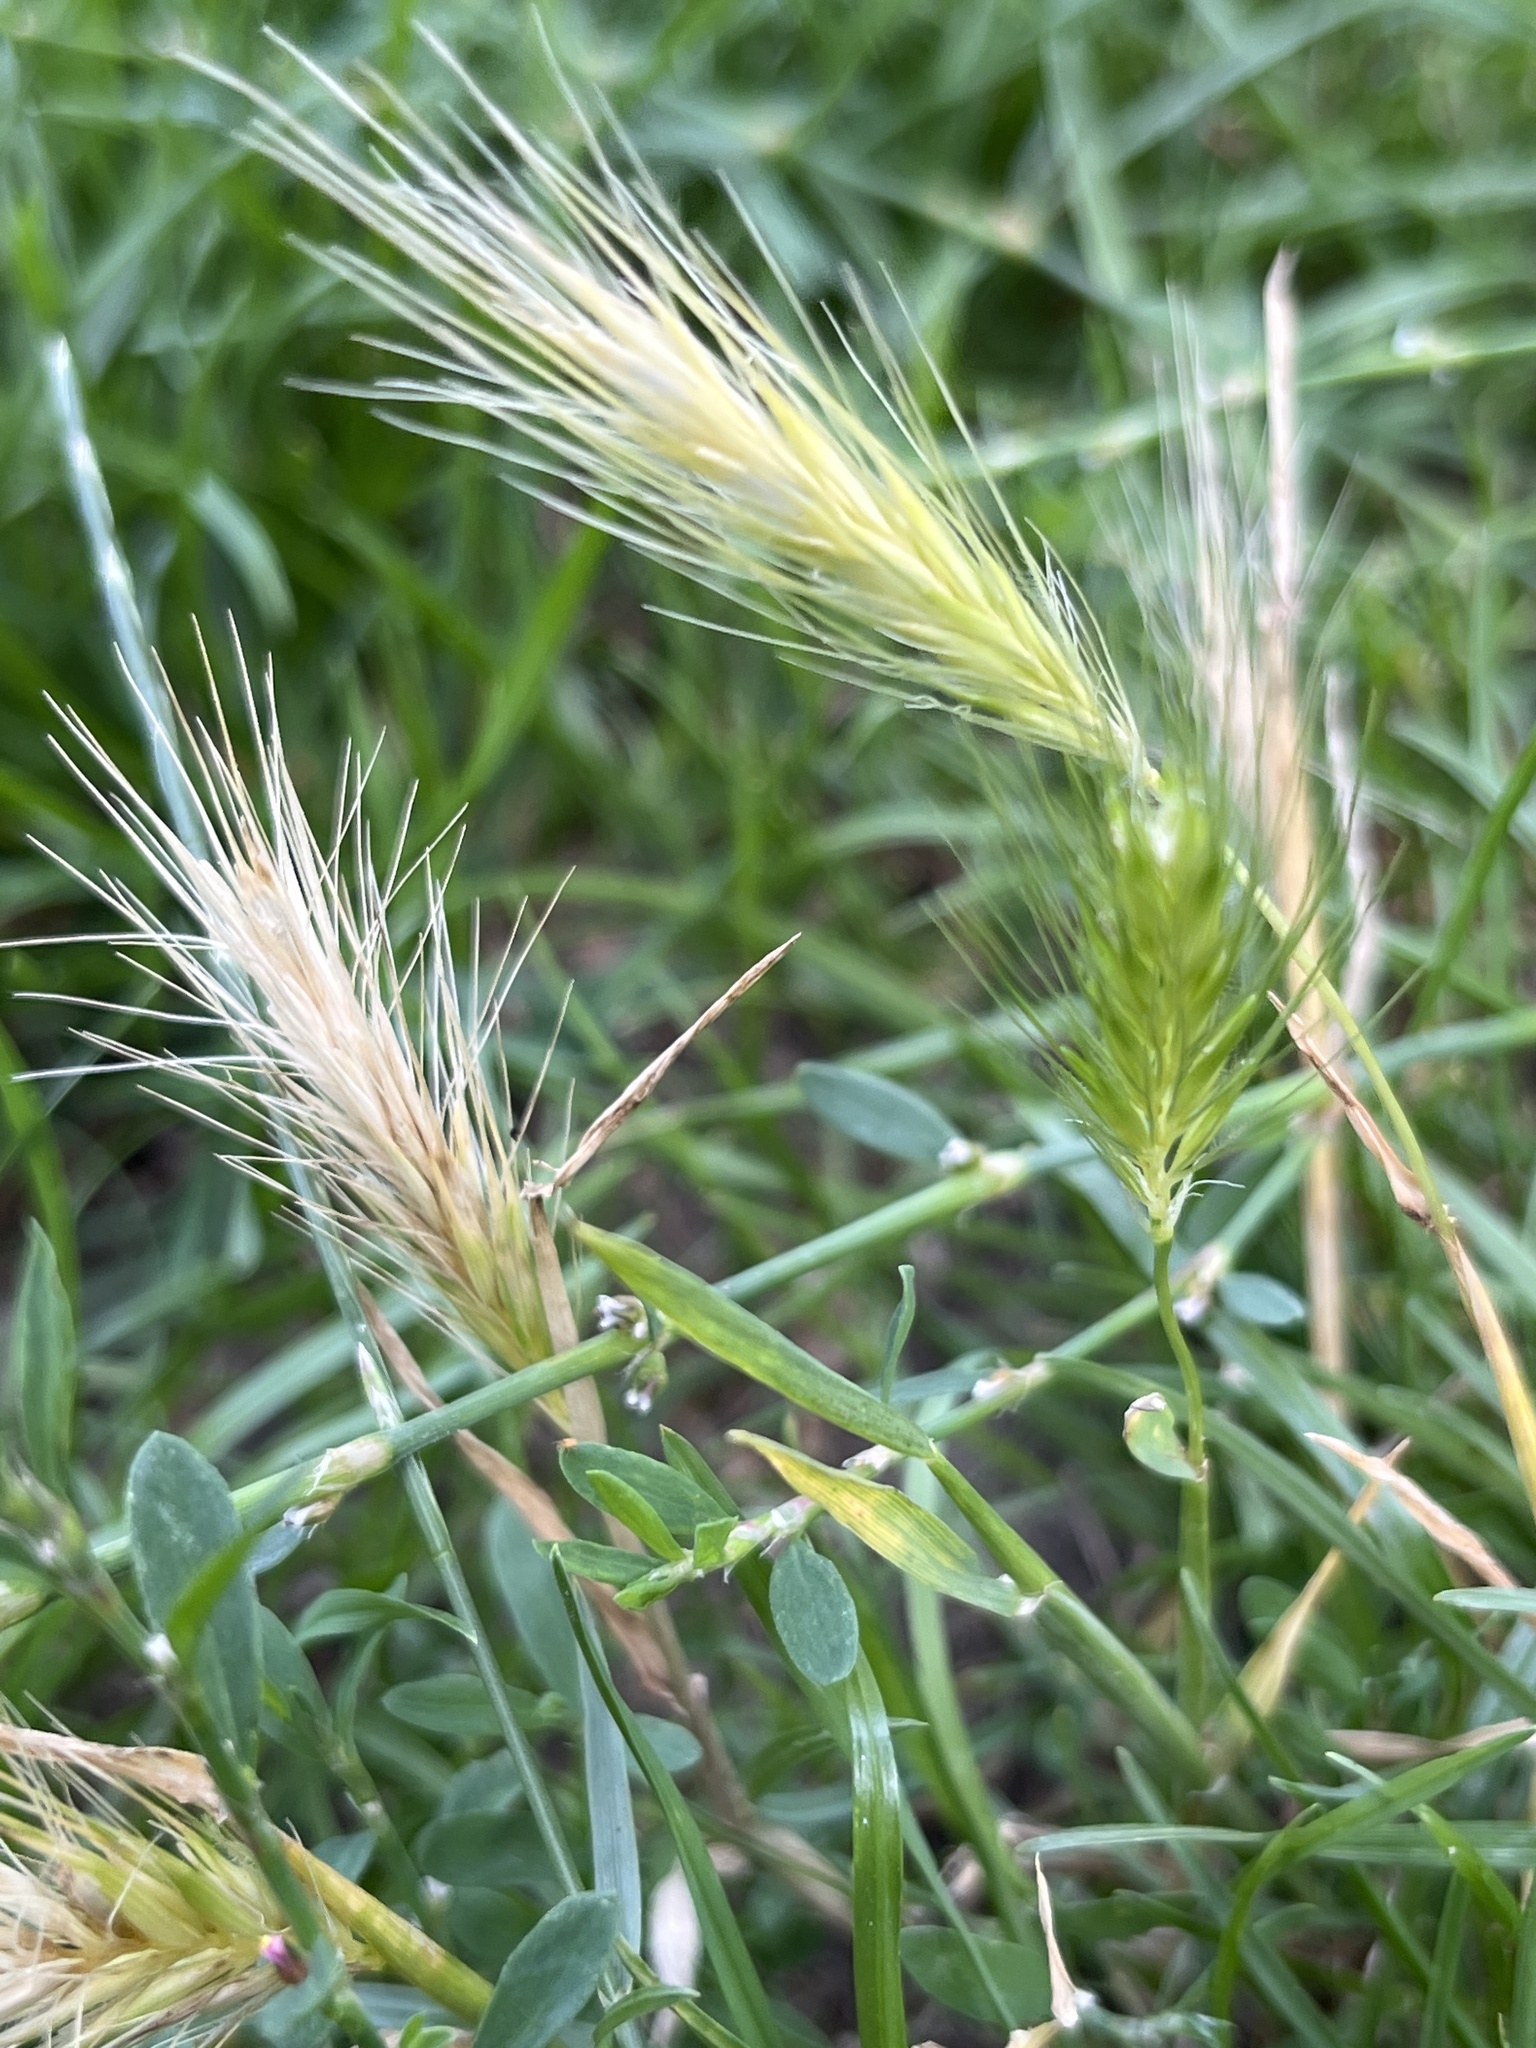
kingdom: Plantae
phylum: Tracheophyta
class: Liliopsida
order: Poales
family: Poaceae
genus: Hordeum
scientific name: Hordeum murinum
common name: Wall barley
